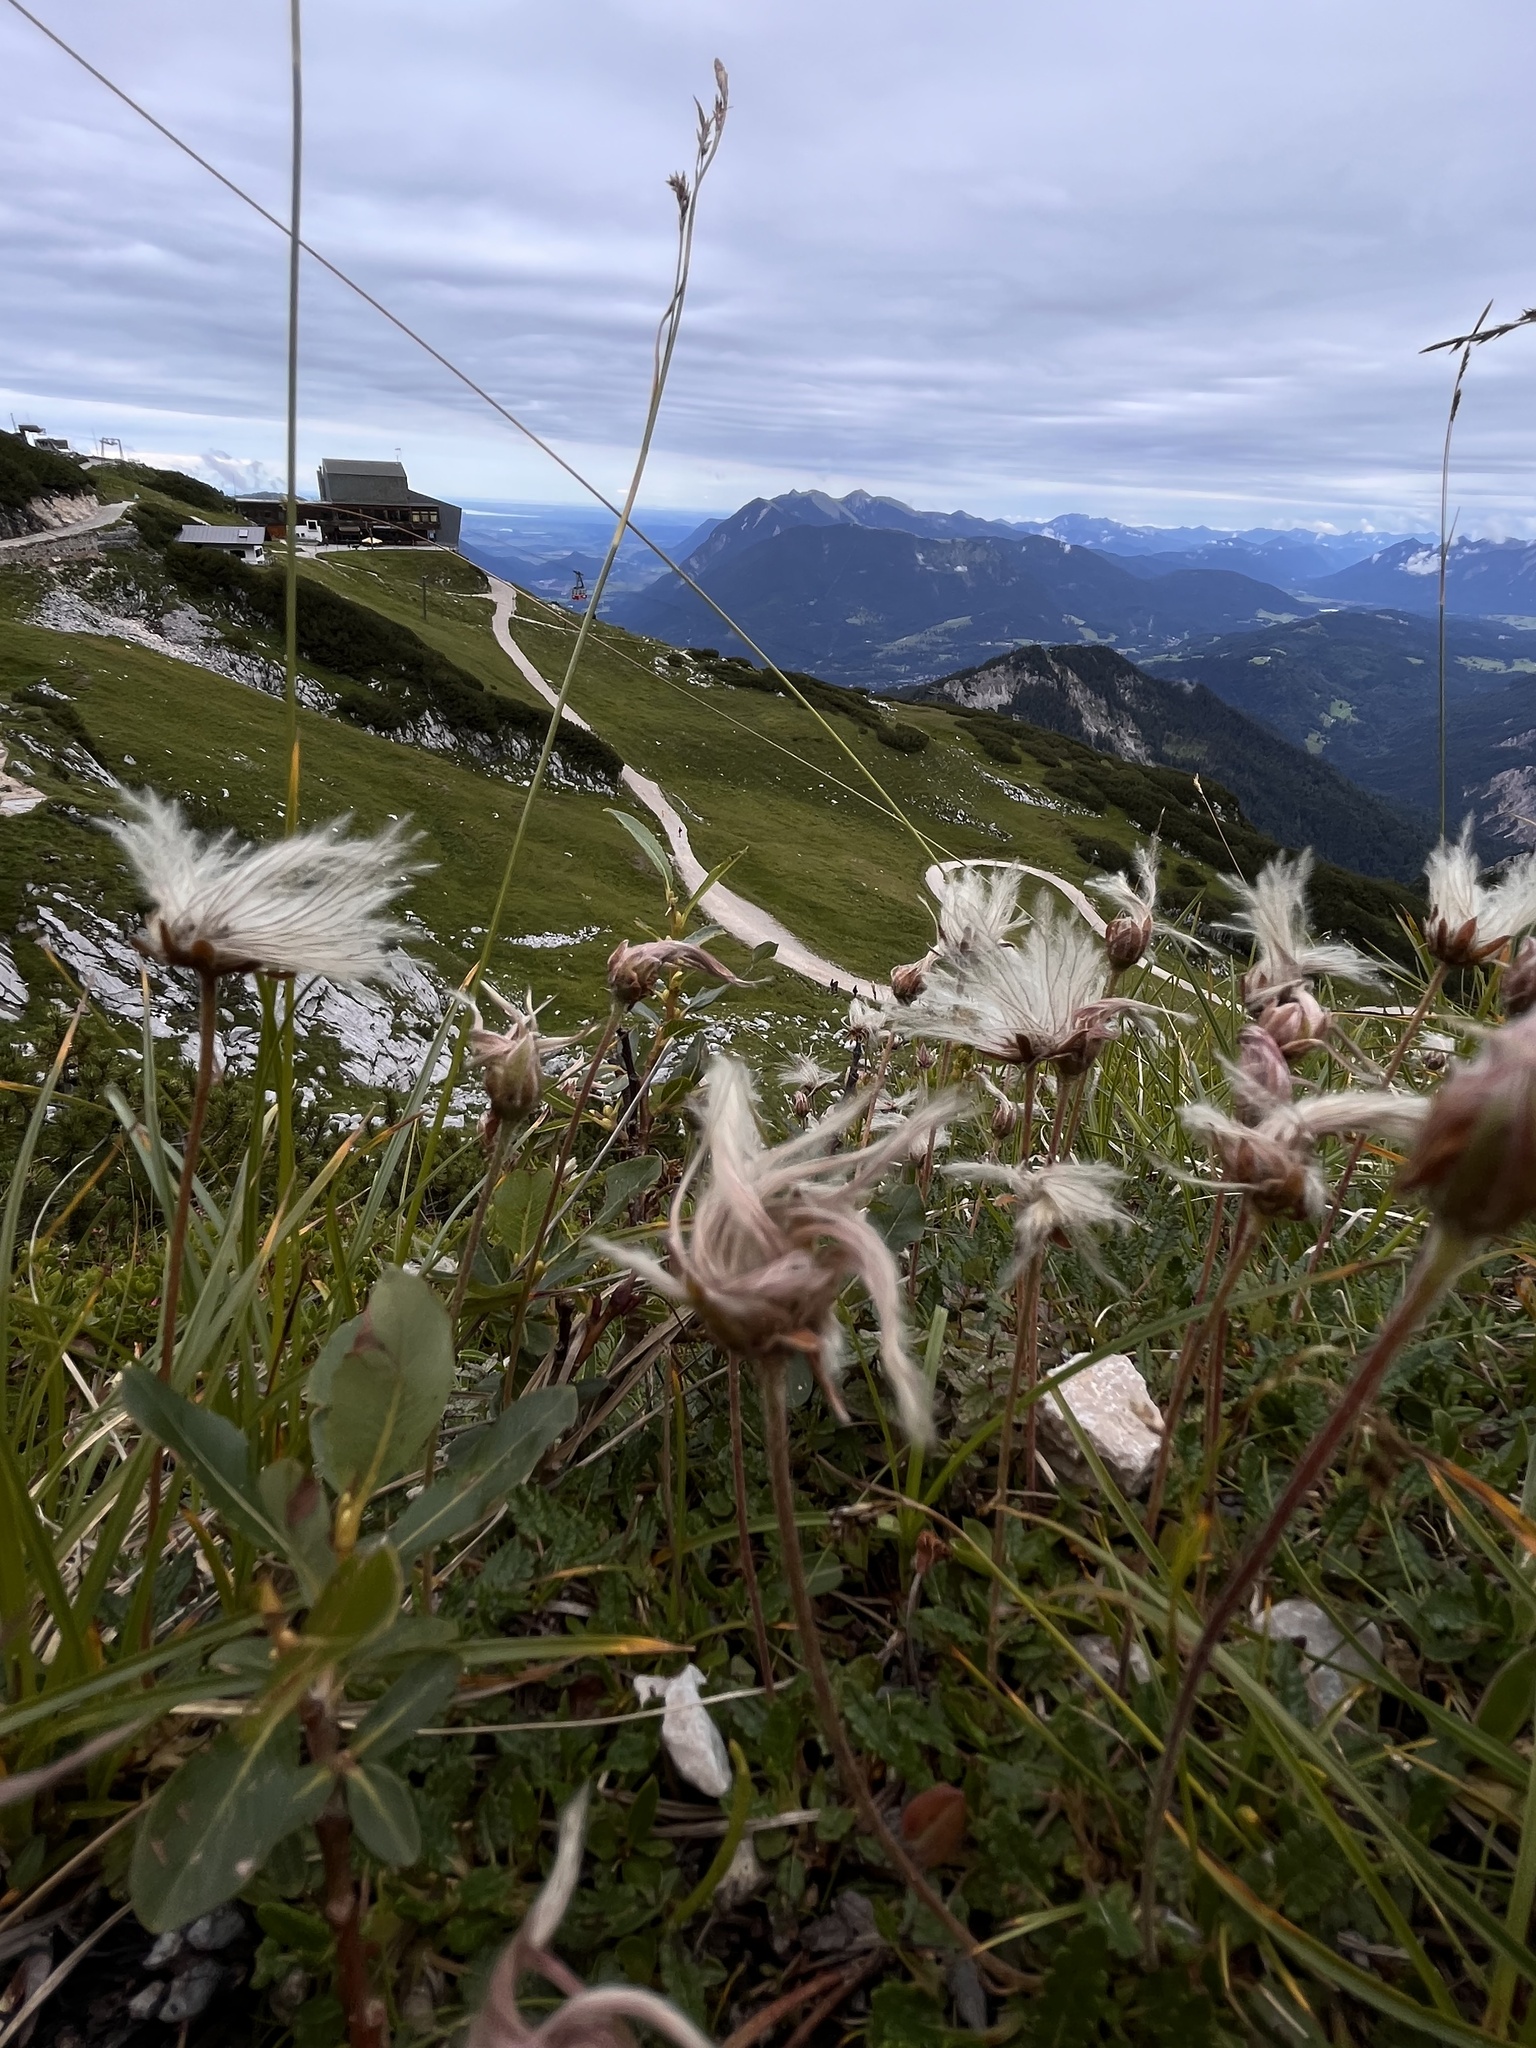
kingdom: Plantae
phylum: Tracheophyta
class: Magnoliopsida
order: Rosales
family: Rosaceae
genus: Dryas
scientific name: Dryas octopetala
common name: Eight-petal mountain-avens
